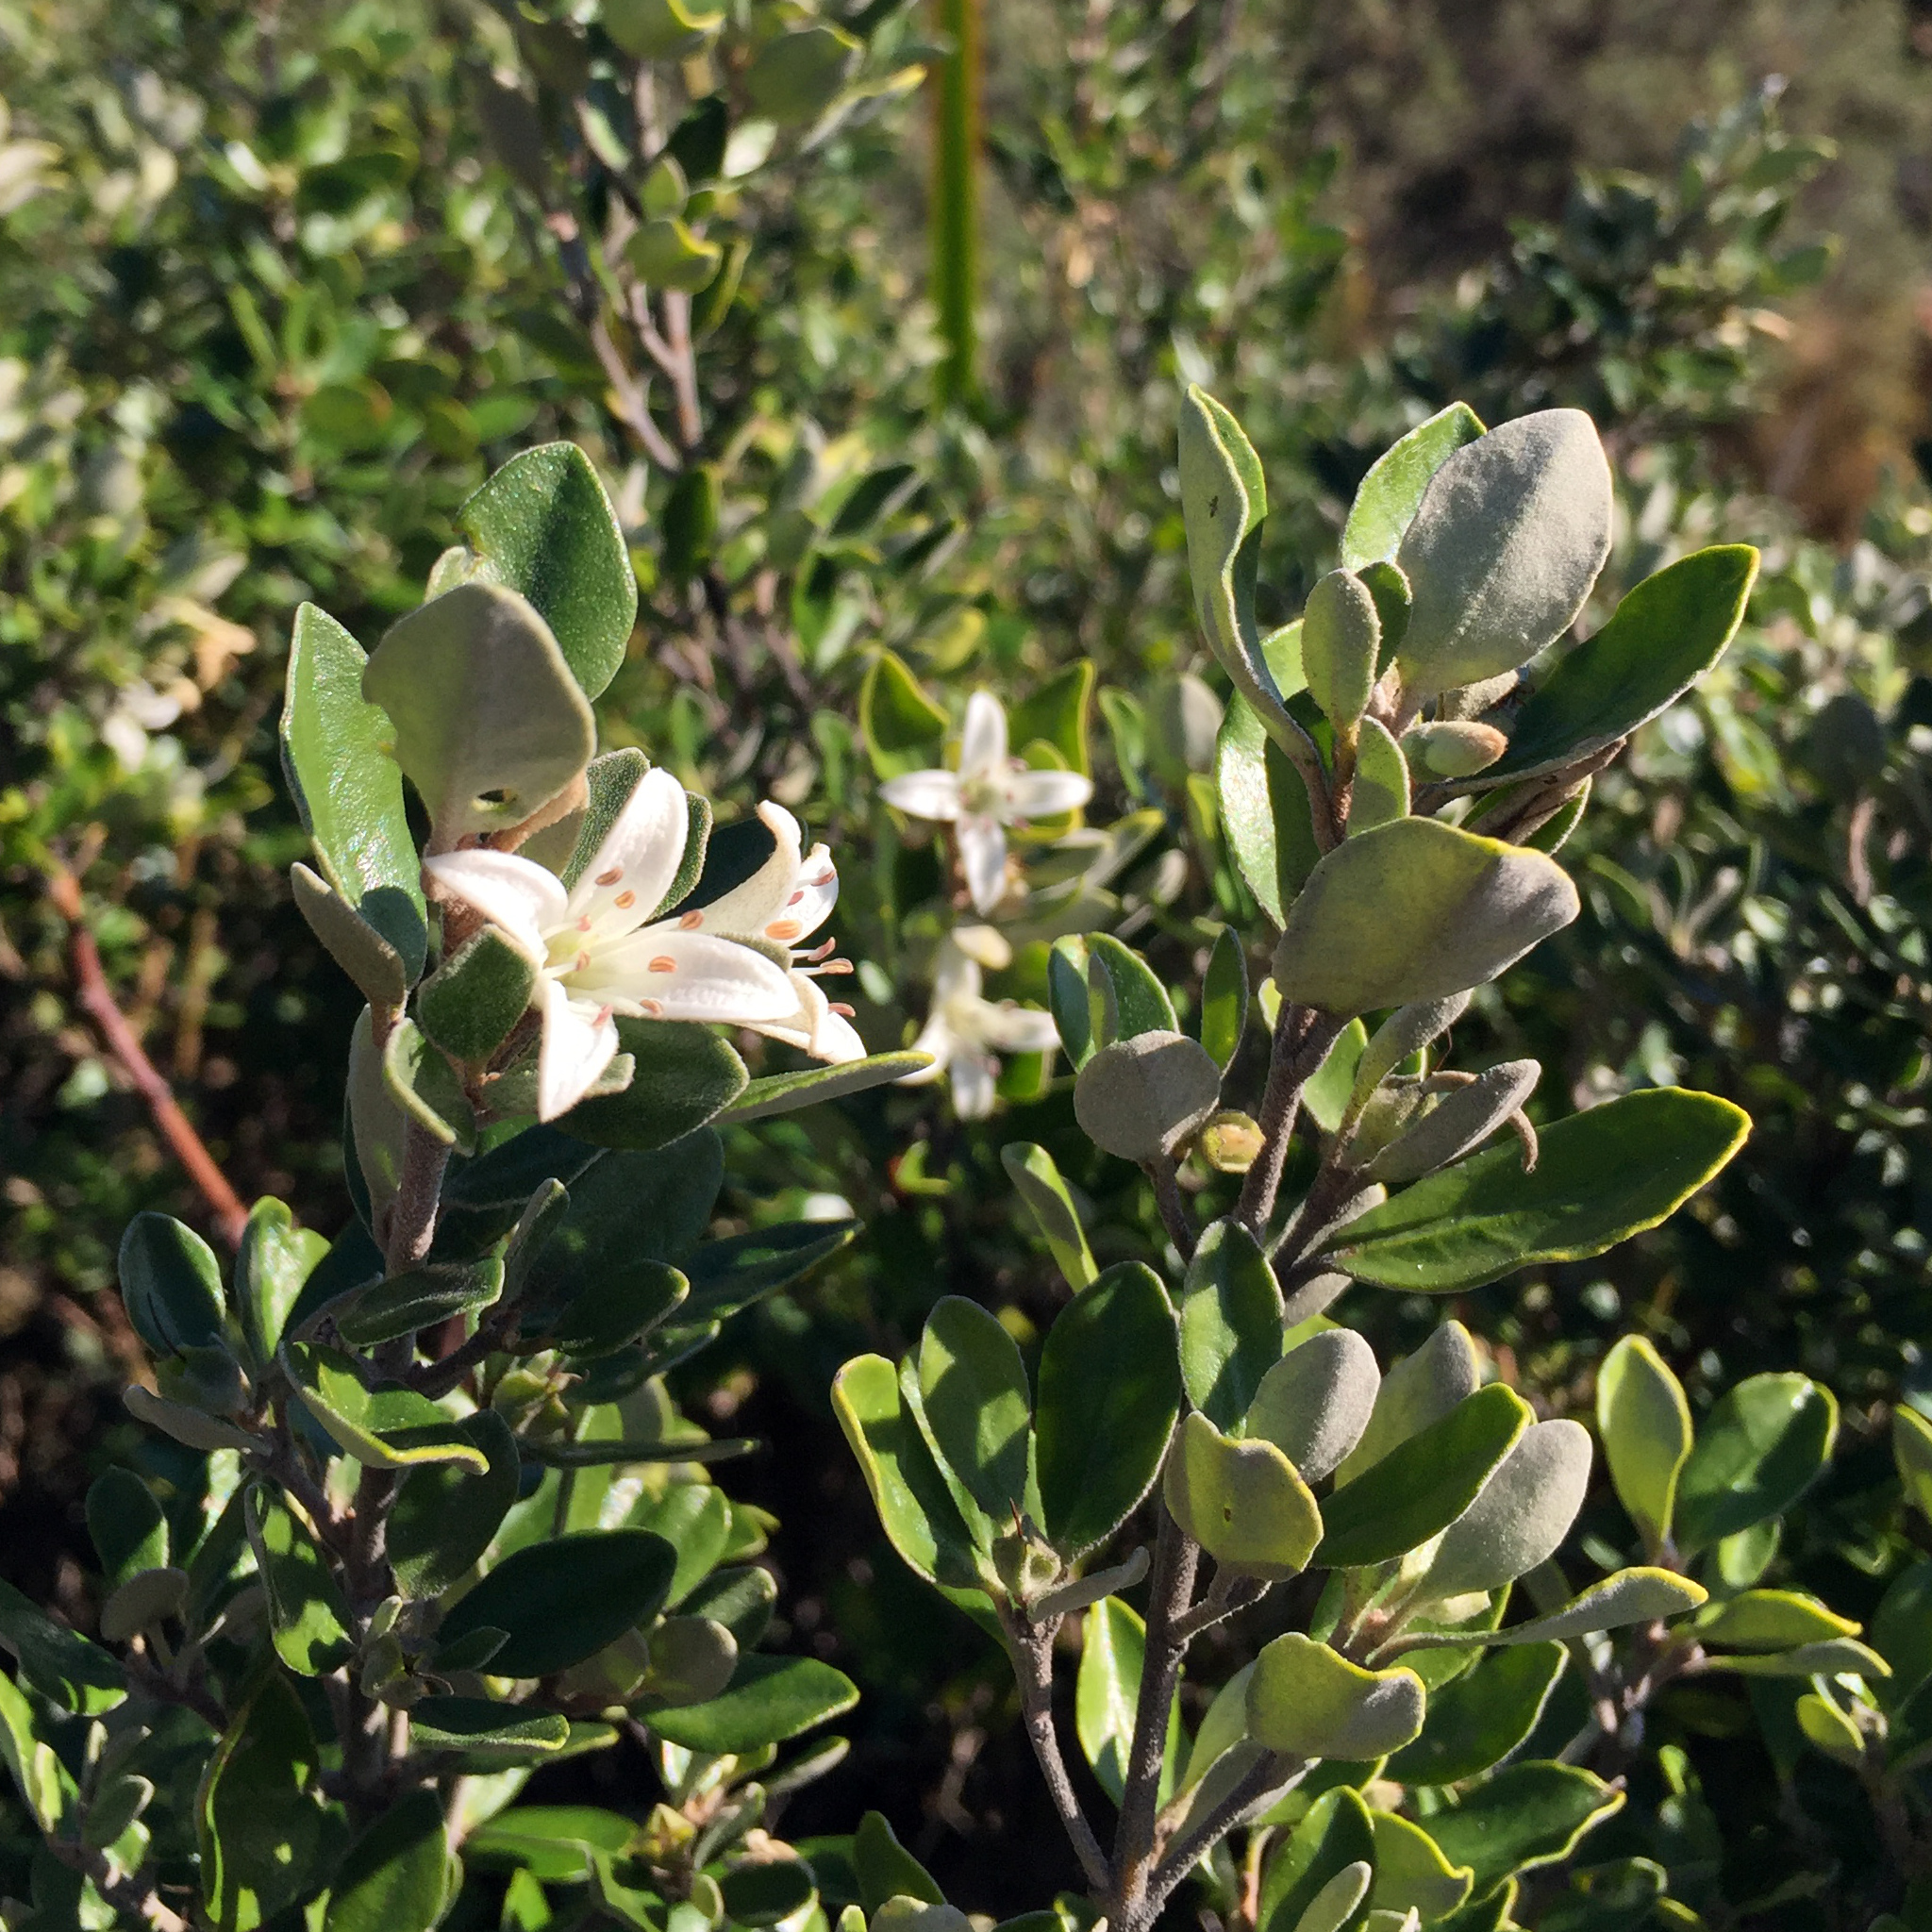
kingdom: Plantae
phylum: Tracheophyta
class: Magnoliopsida
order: Sapindales
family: Rutaceae
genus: Correa
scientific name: Correa alba
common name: White correa
